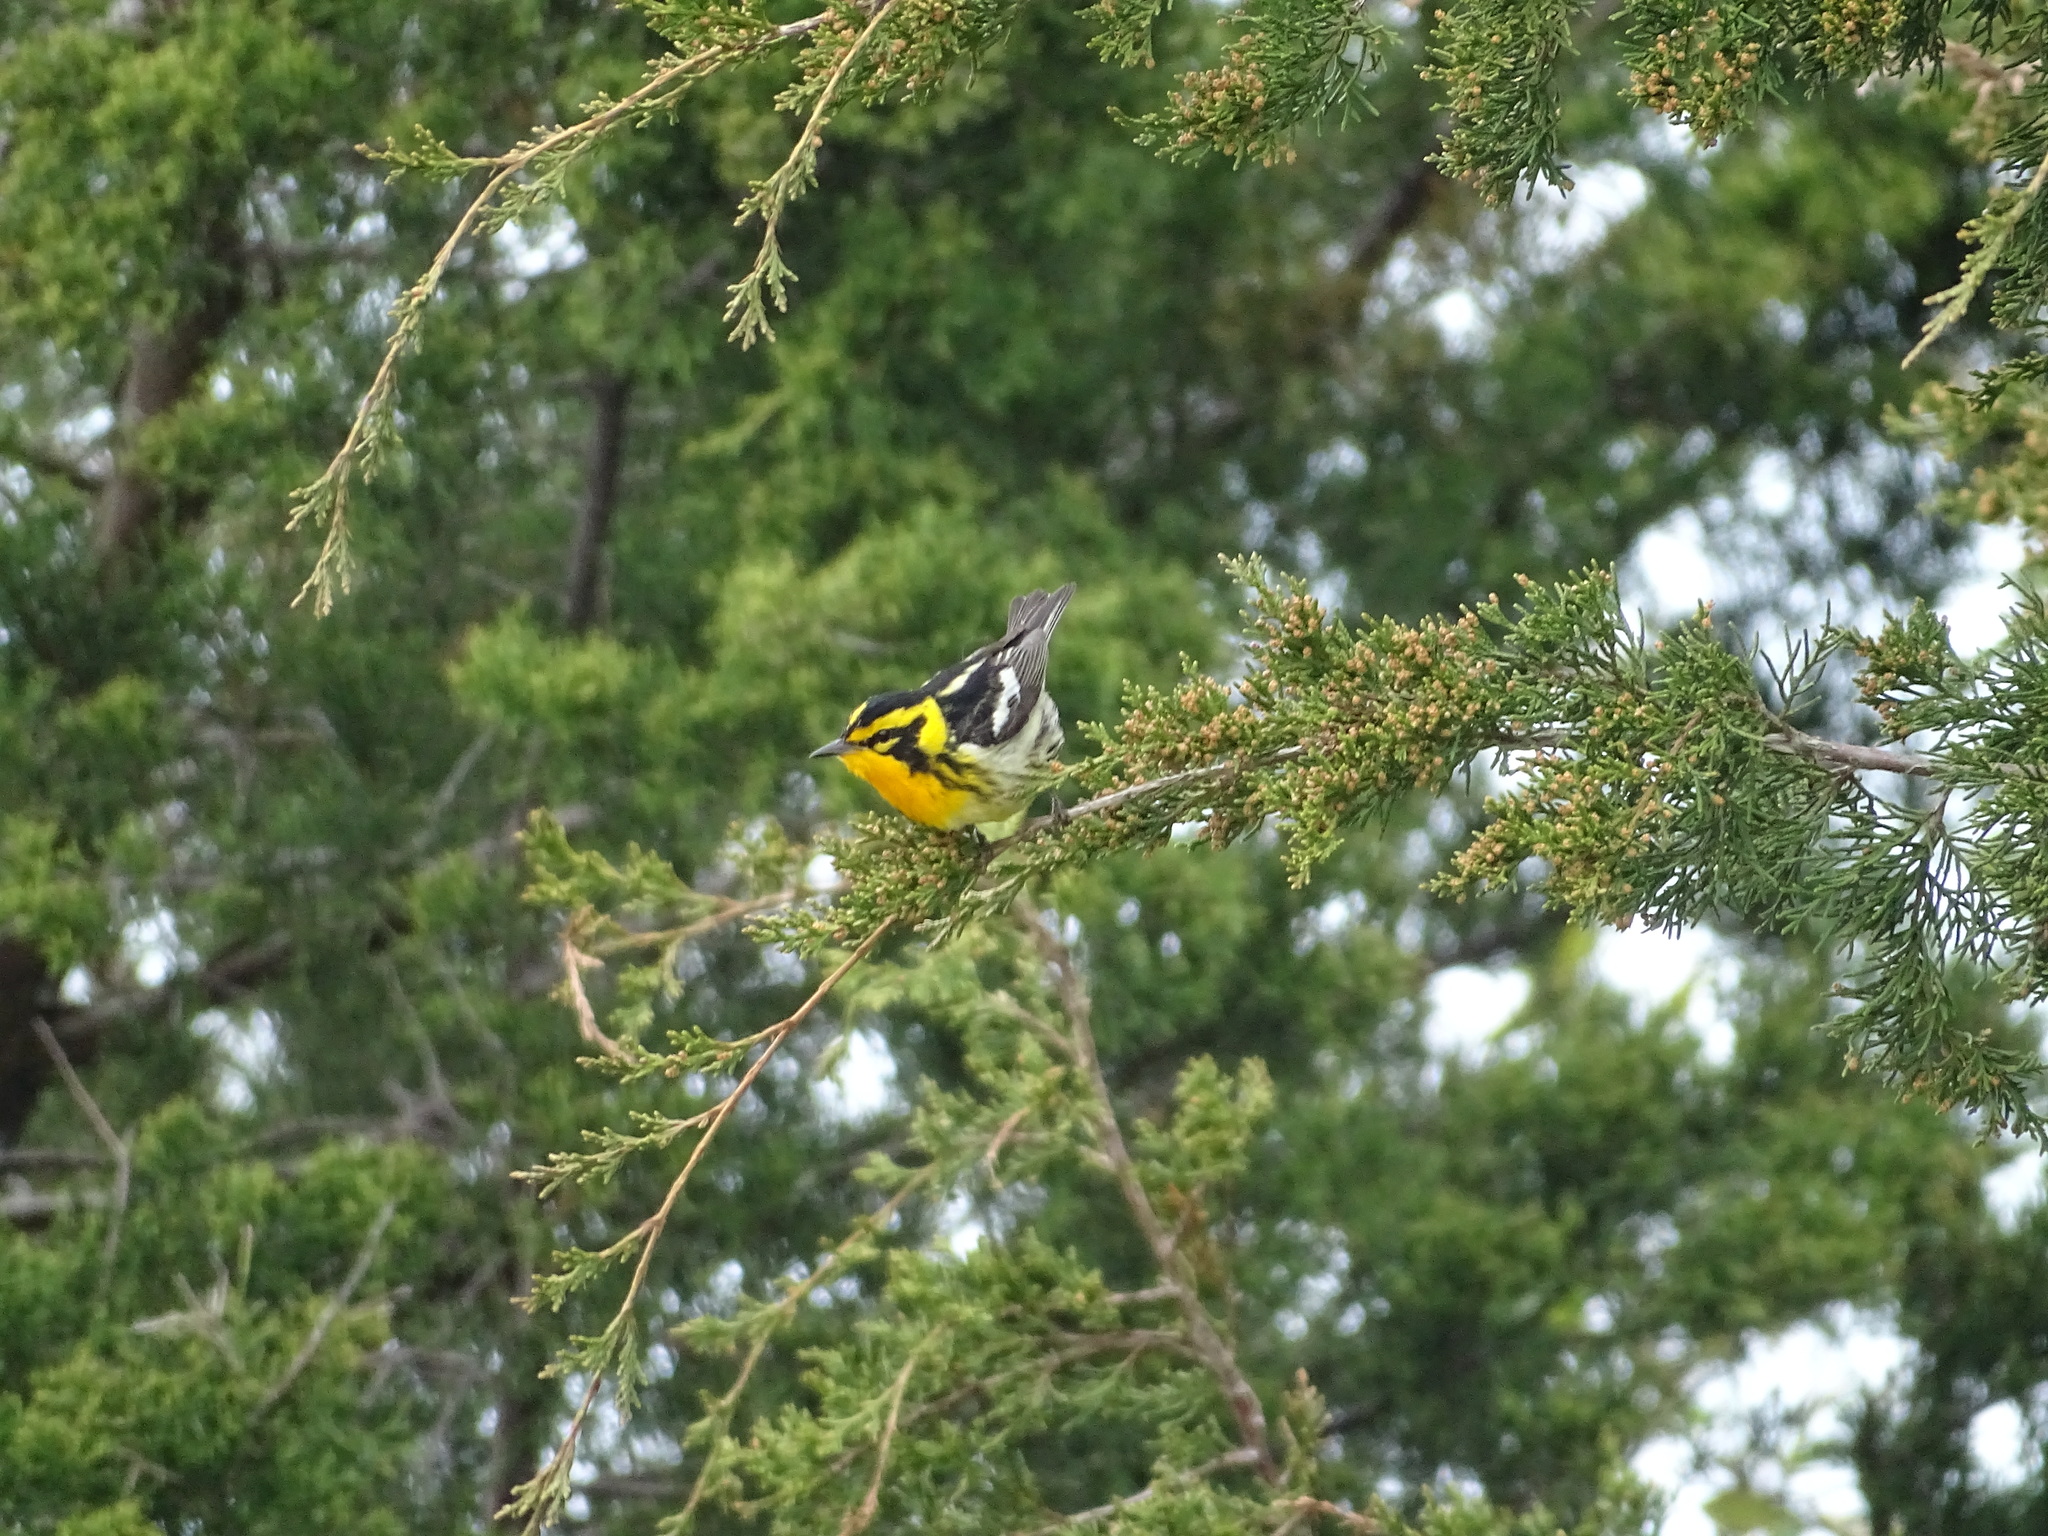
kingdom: Animalia
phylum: Chordata
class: Aves
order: Passeriformes
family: Parulidae
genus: Setophaga
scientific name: Setophaga fusca
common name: Blackburnian warbler
